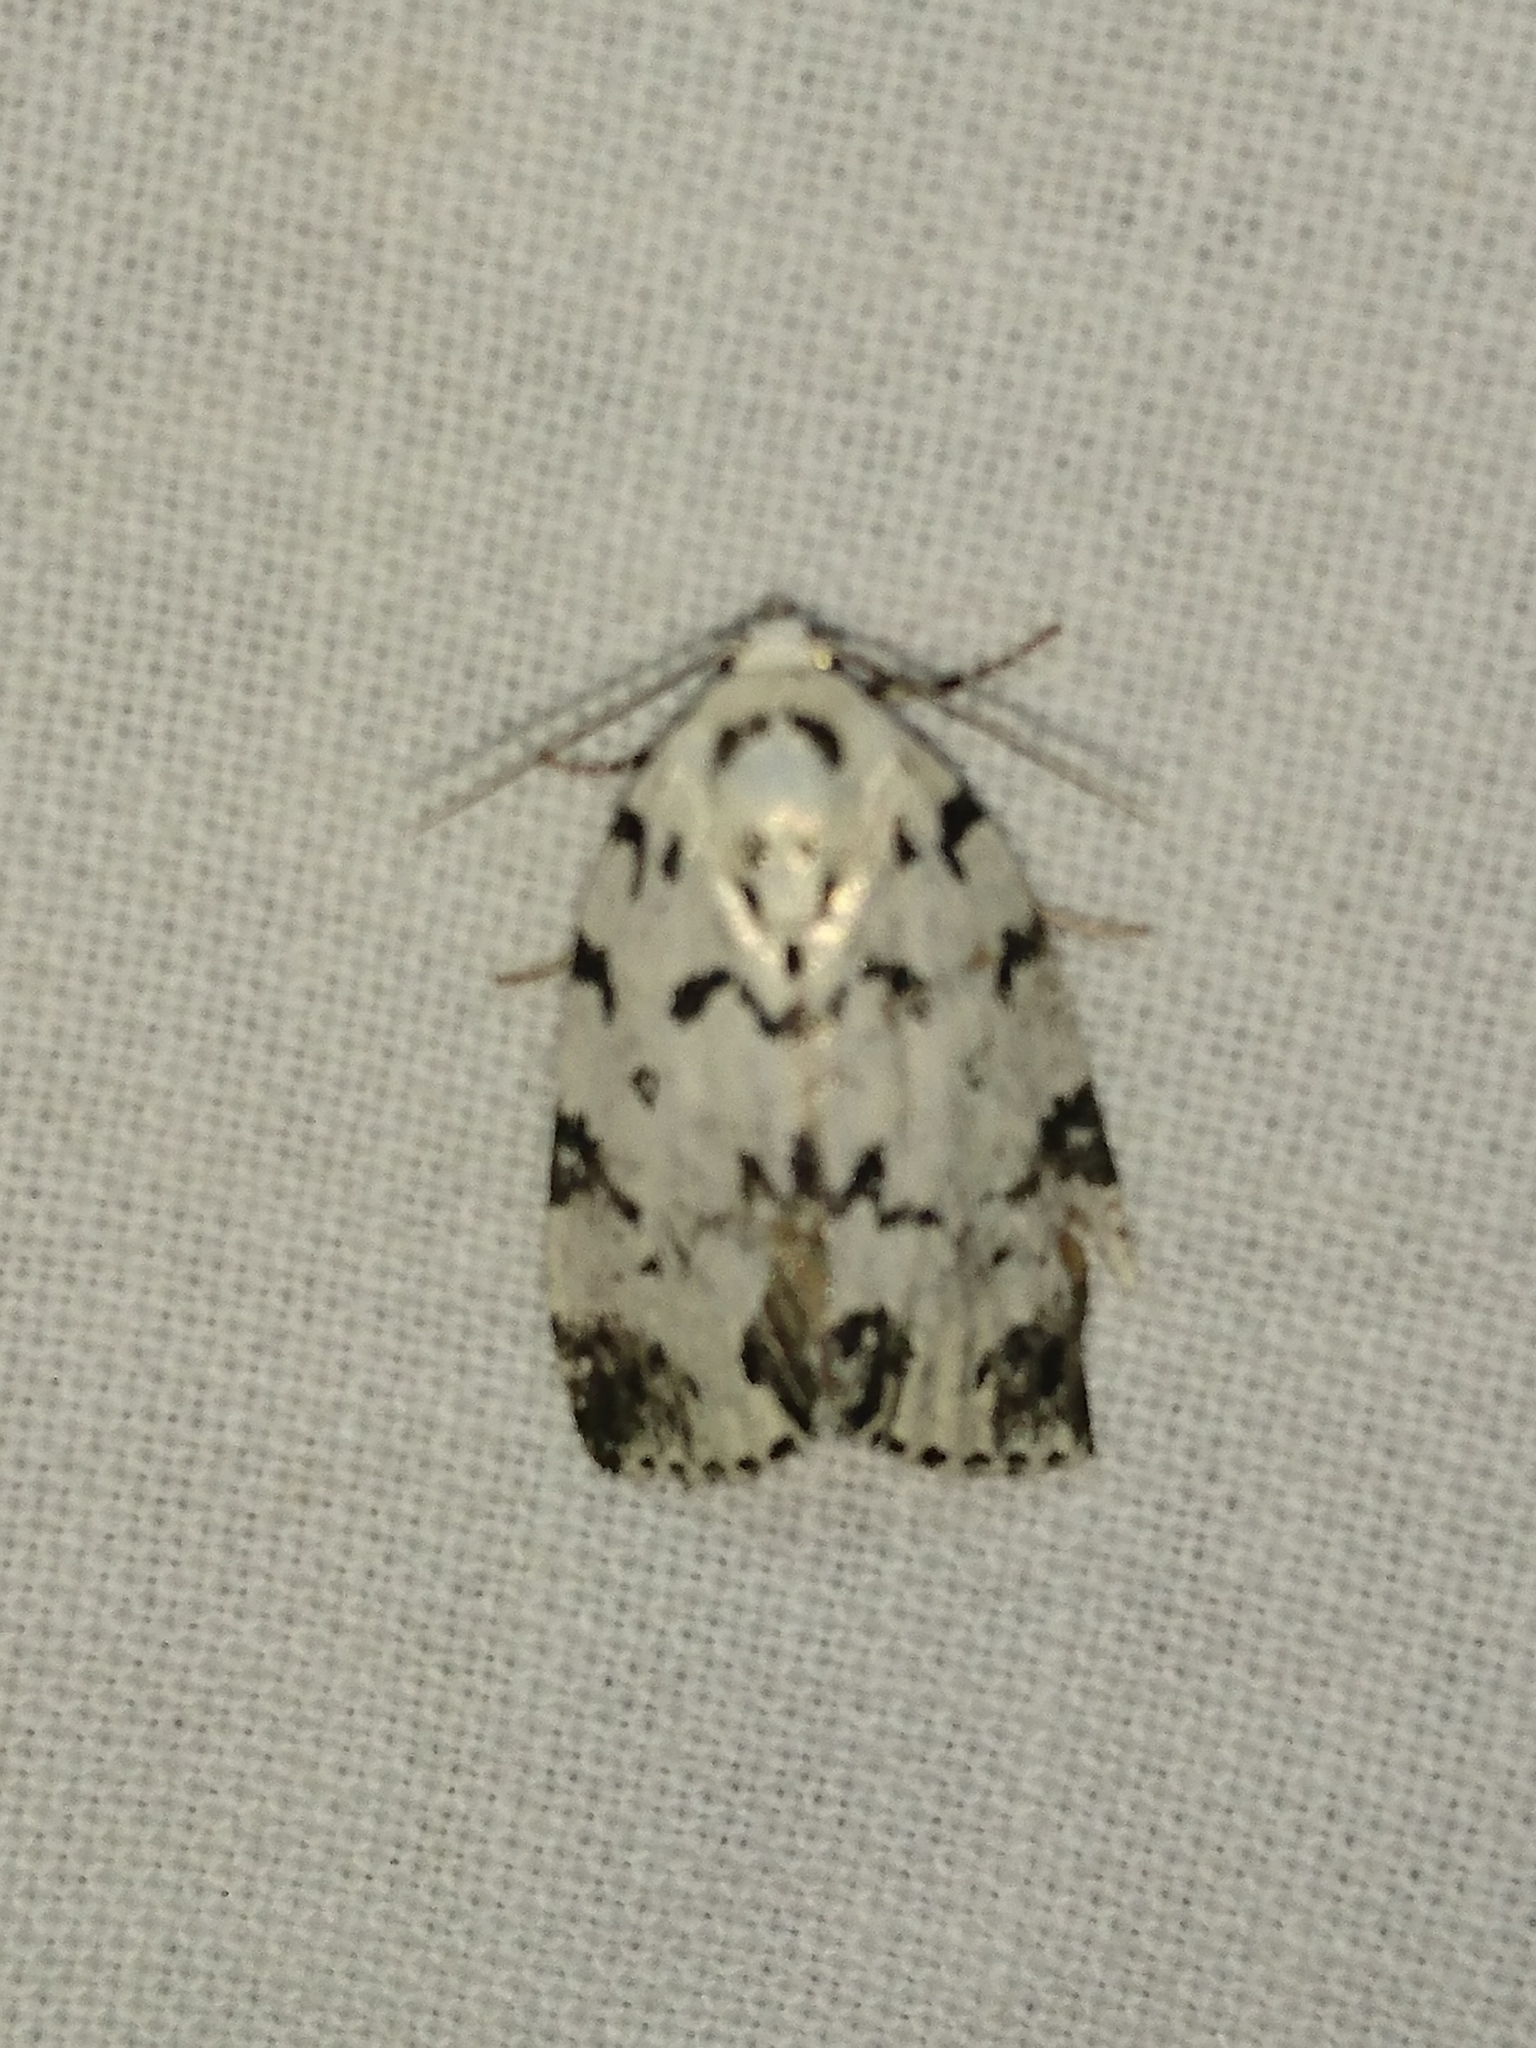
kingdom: Animalia
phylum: Arthropoda
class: Insecta
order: Lepidoptera
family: Noctuidae
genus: Polygrammate
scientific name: Polygrammate hebraeicum
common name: Hebrew moth
